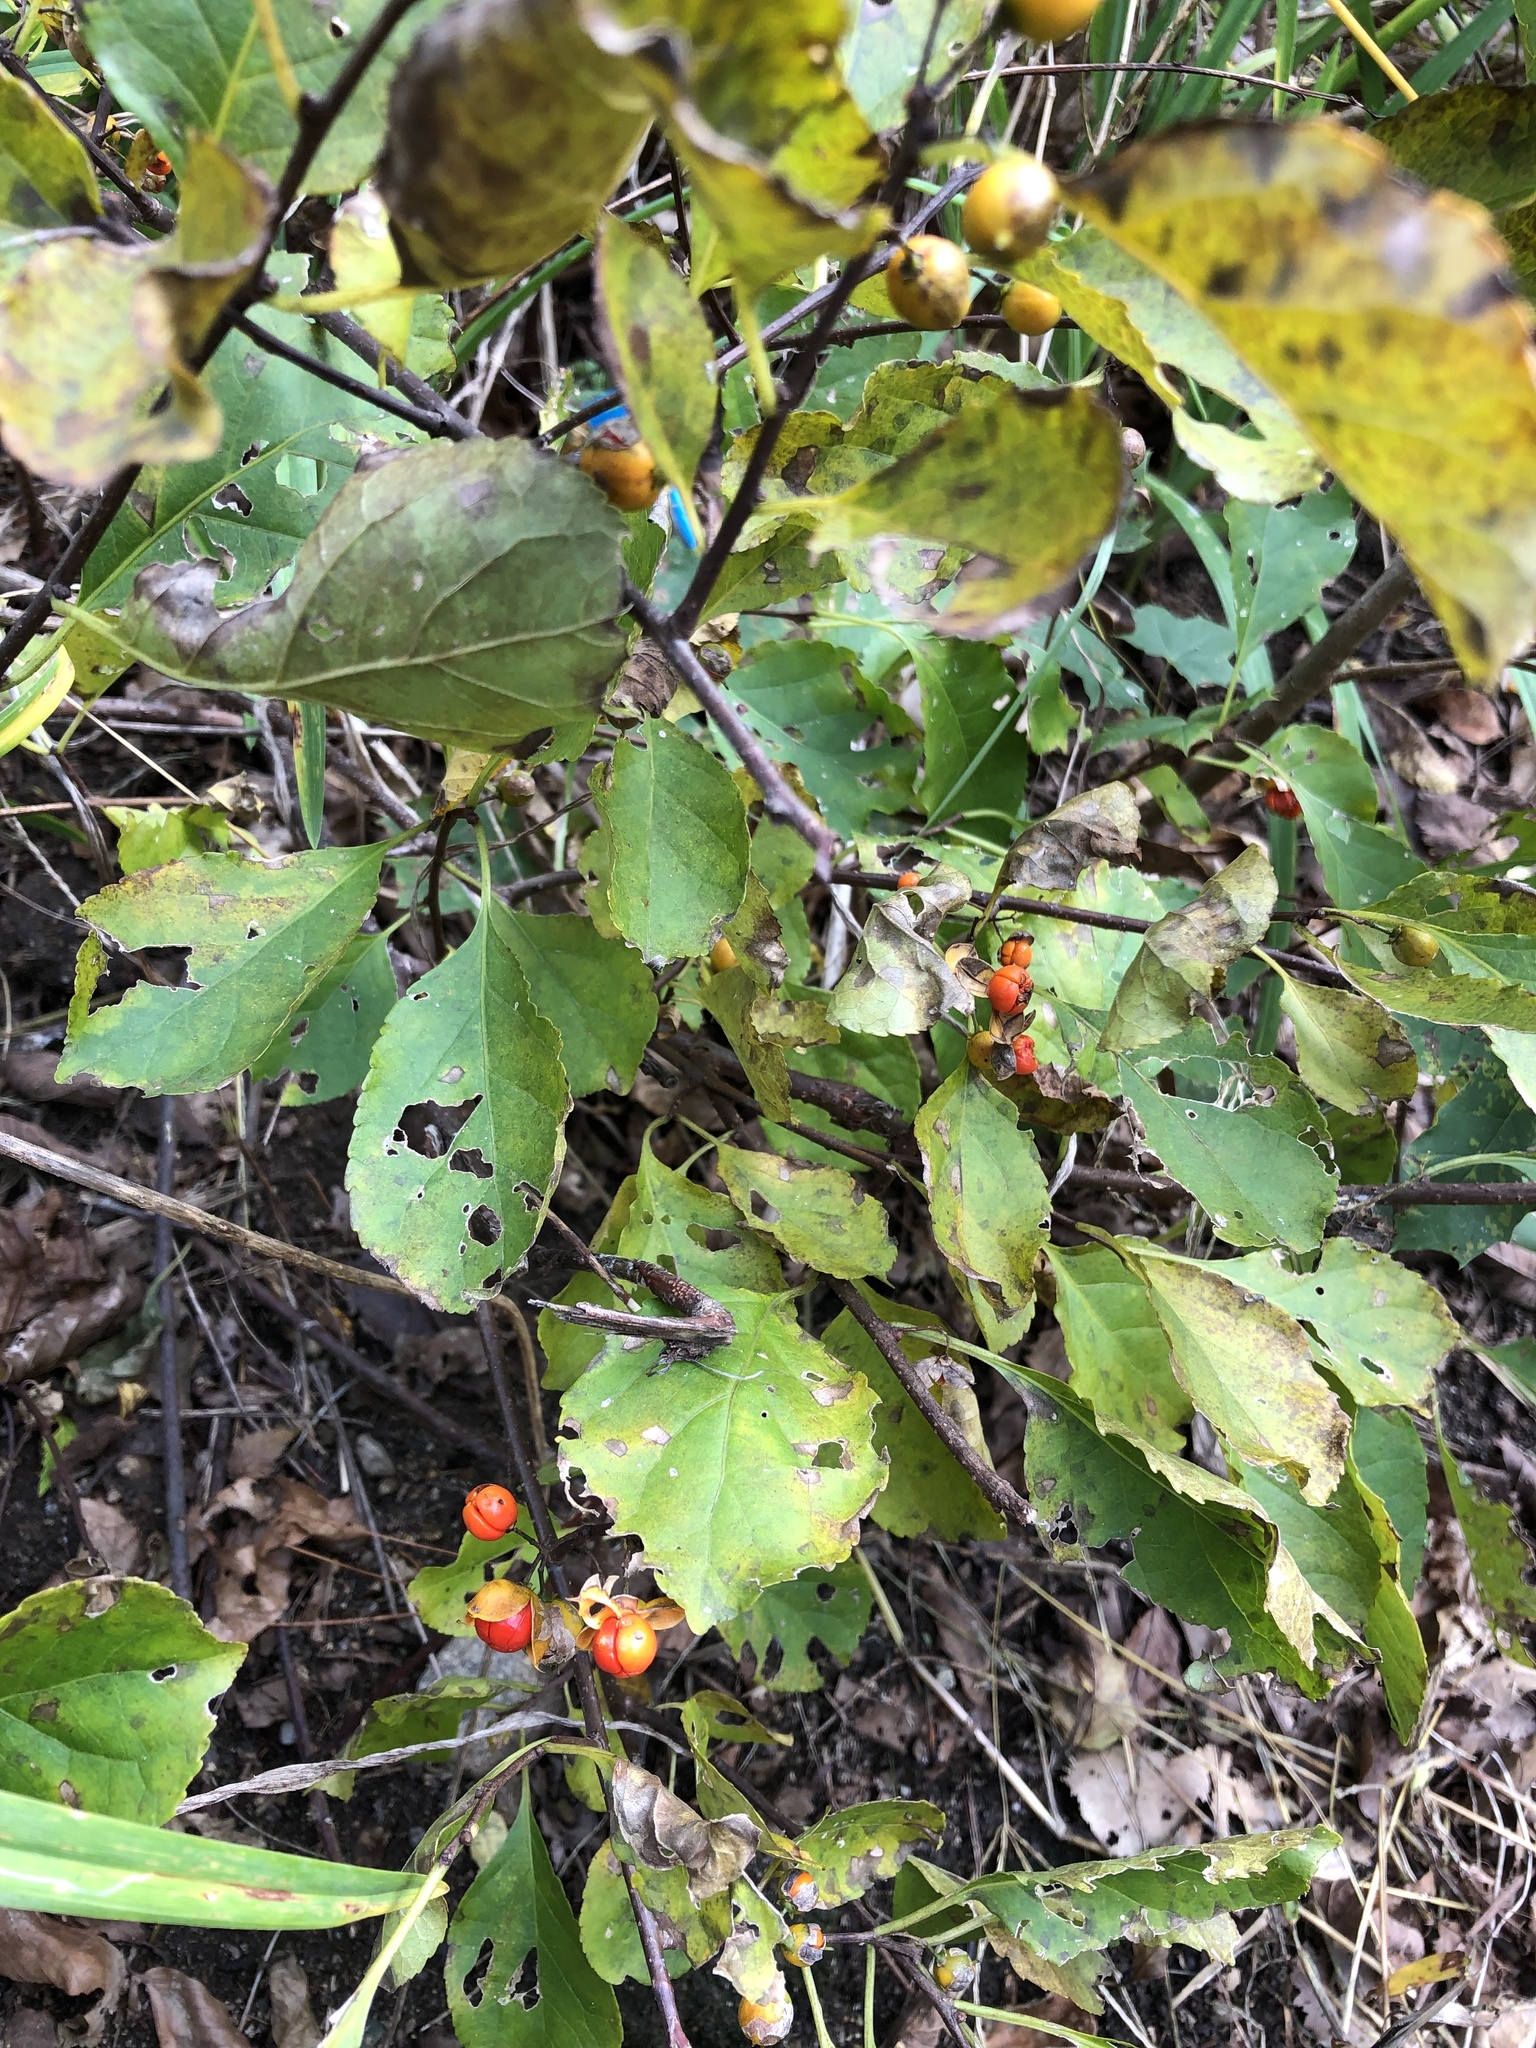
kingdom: Plantae
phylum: Tracheophyta
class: Magnoliopsida
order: Celastrales
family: Celastraceae
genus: Celastrus
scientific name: Celastrus orbiculatus
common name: Oriental bittersweet
